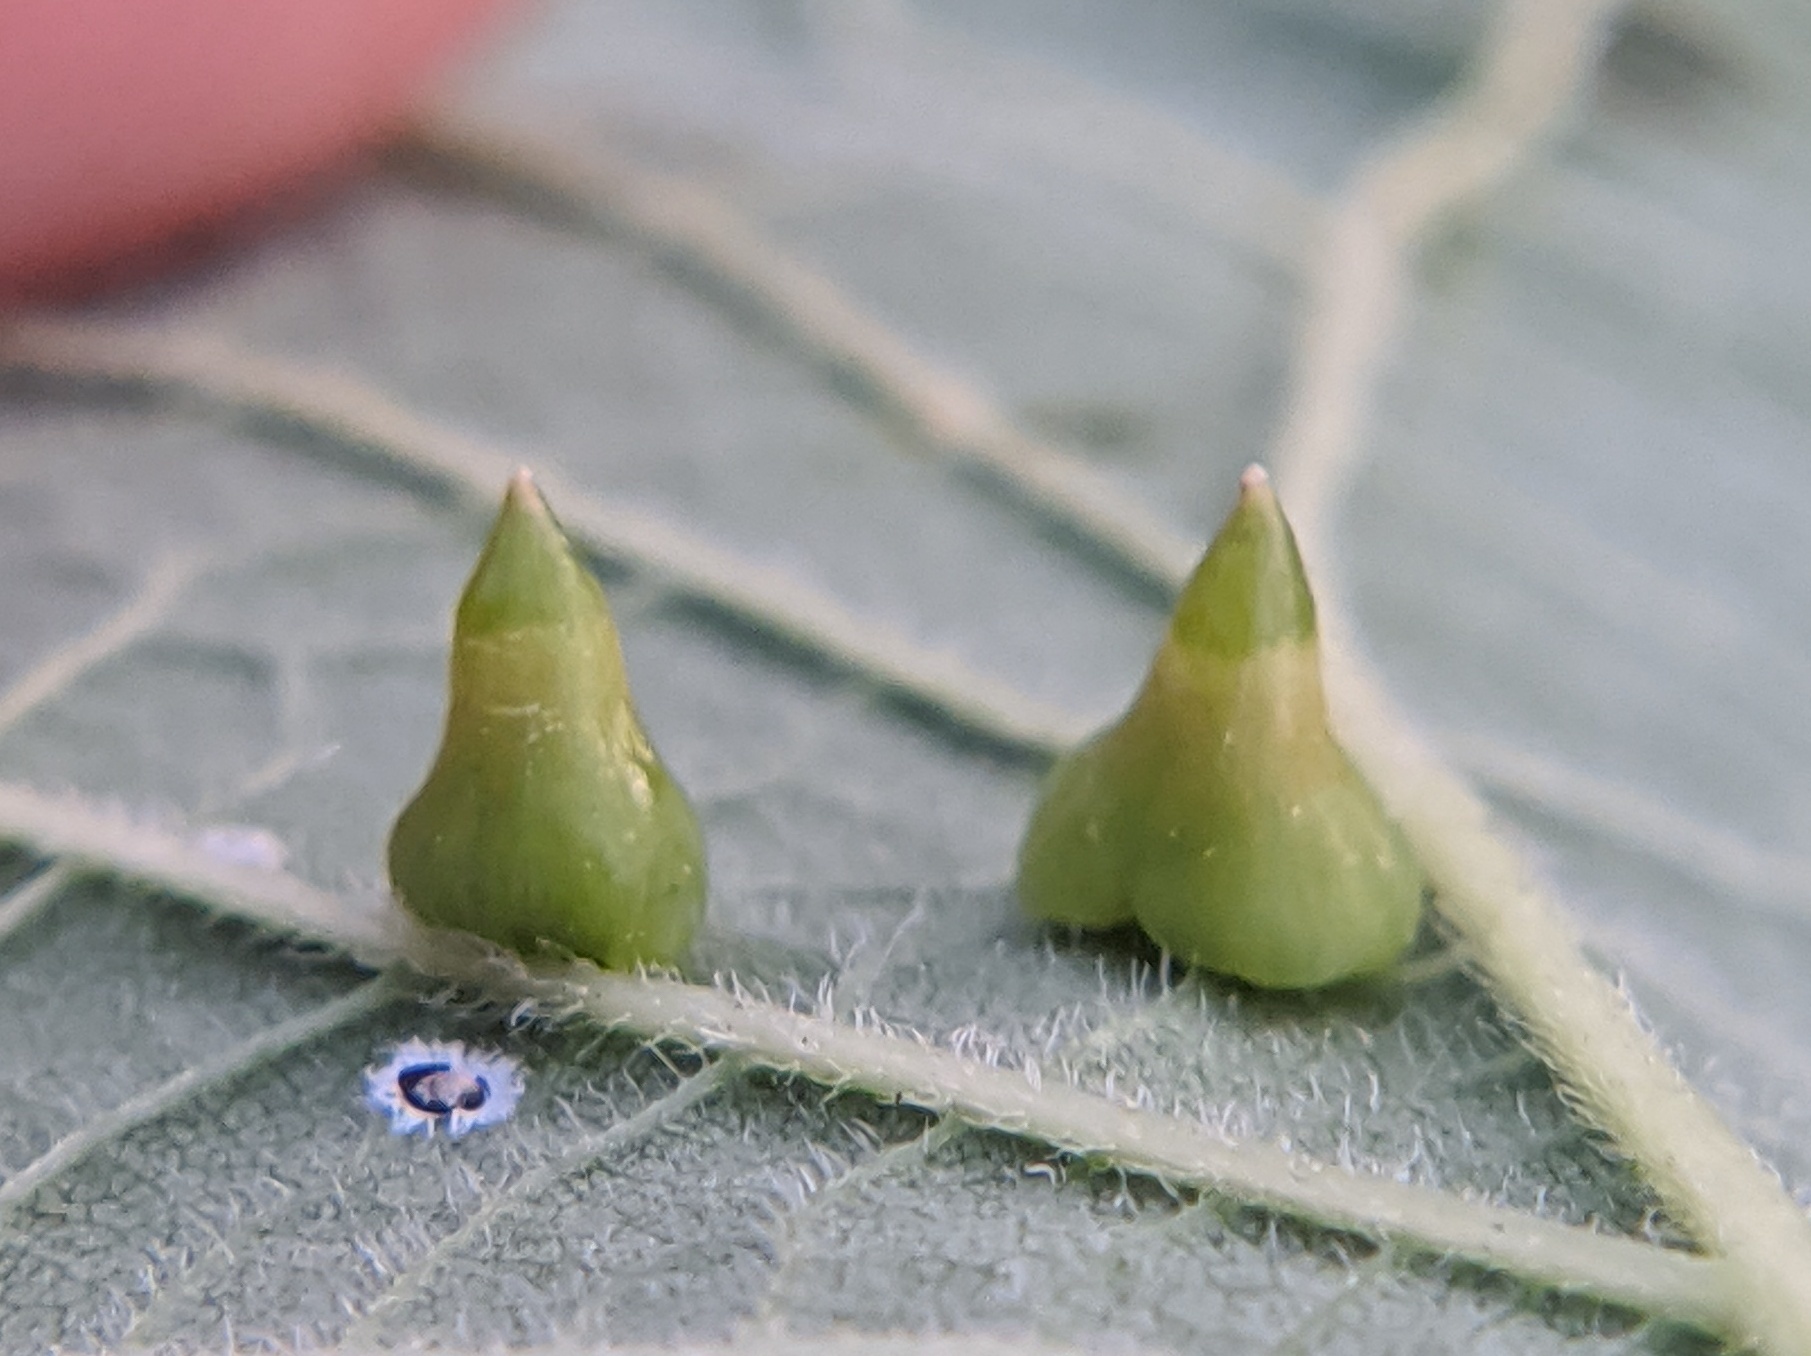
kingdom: Animalia
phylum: Arthropoda
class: Insecta
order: Diptera
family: Cecidomyiidae
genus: Celticecis
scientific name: Celticecis spiniformis
